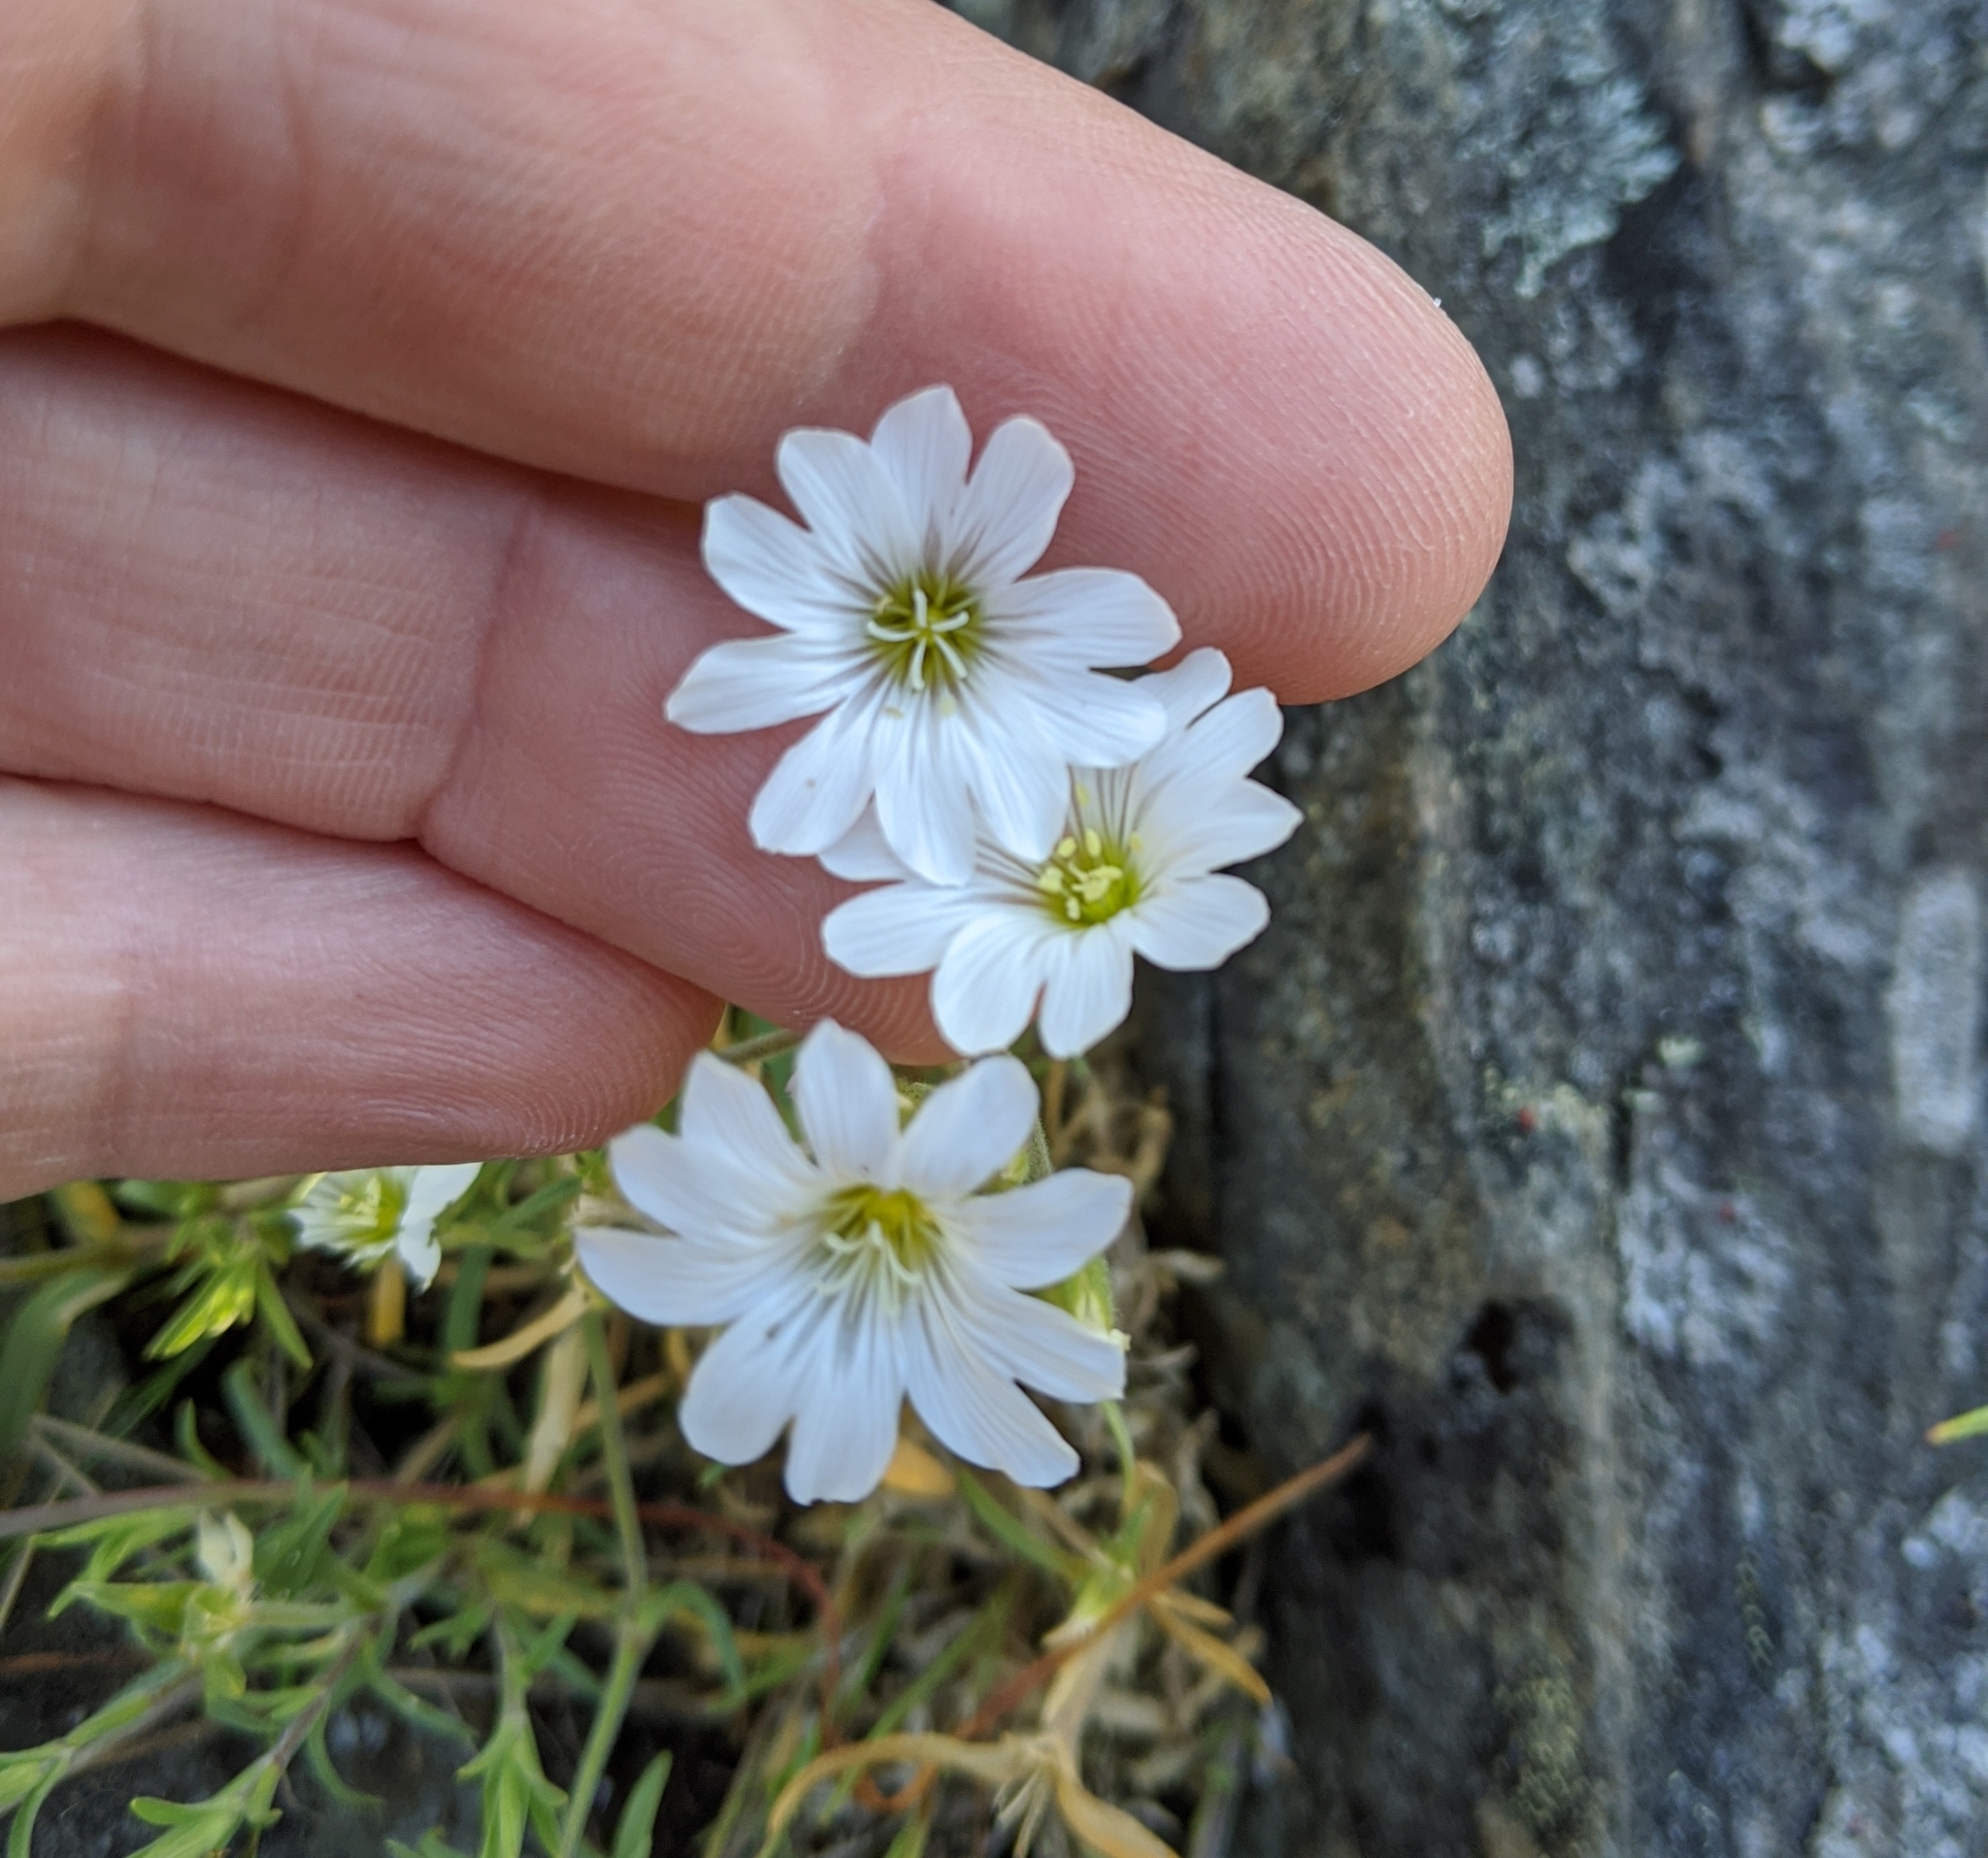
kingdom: Plantae
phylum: Tracheophyta
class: Magnoliopsida
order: Caryophyllales
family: Caryophyllaceae
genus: Cerastium
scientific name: Cerastium arvense
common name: Field mouse-ear
